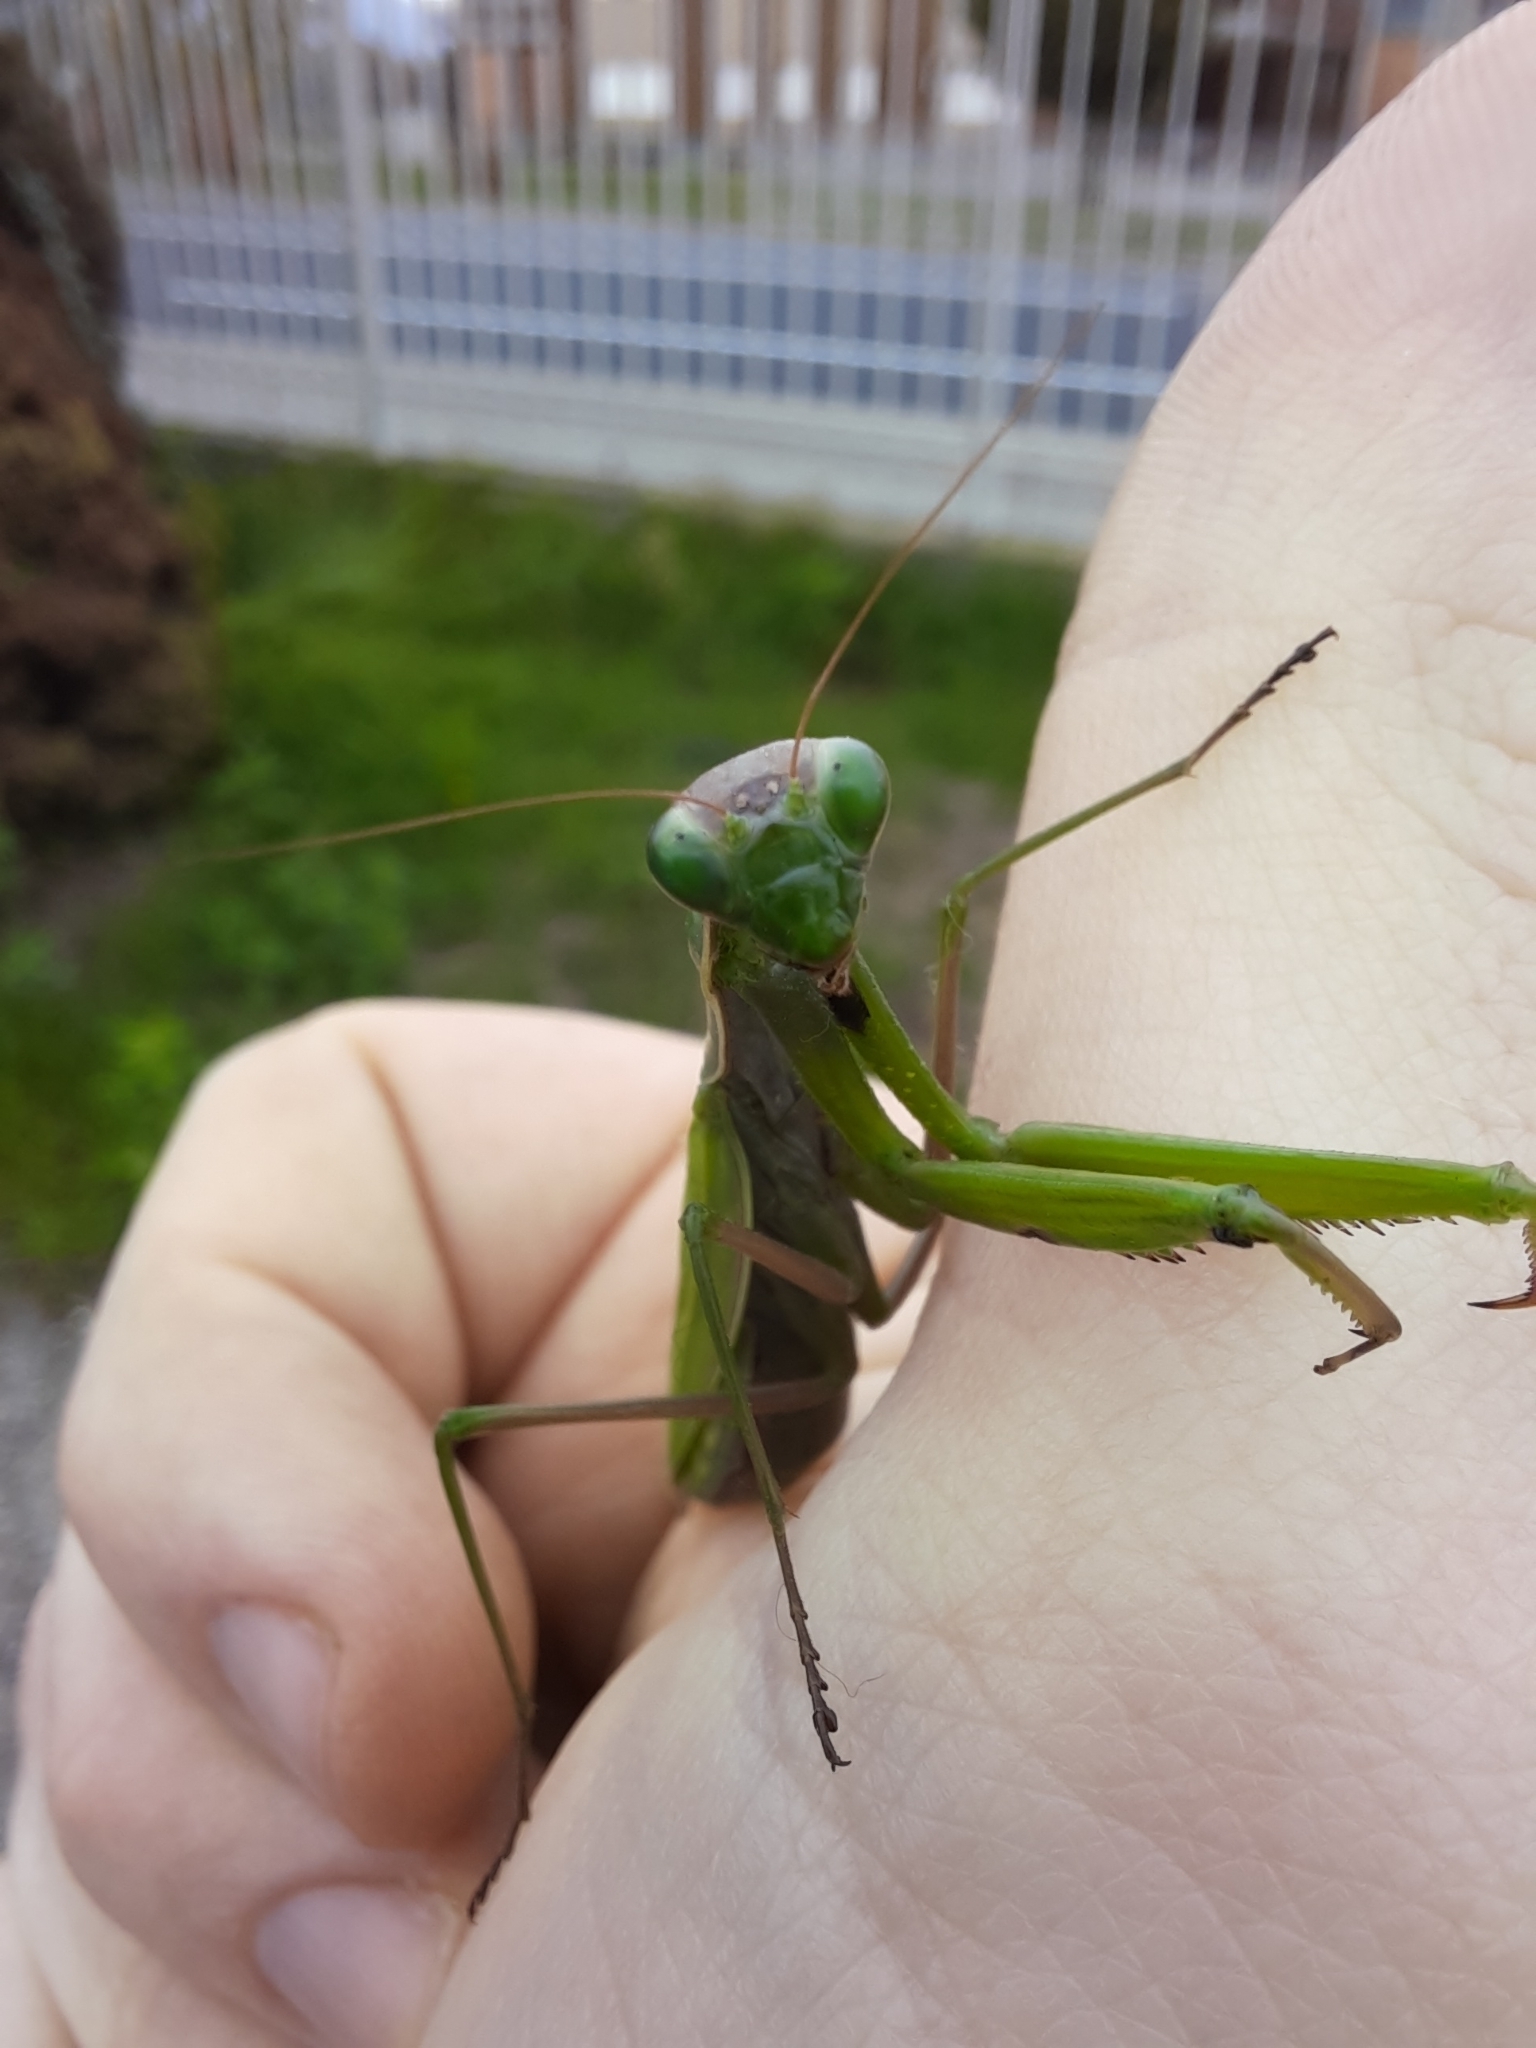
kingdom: Animalia
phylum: Arthropoda
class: Insecta
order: Mantodea
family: Mantidae
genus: Mantis
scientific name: Mantis religiosa
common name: Praying mantis
